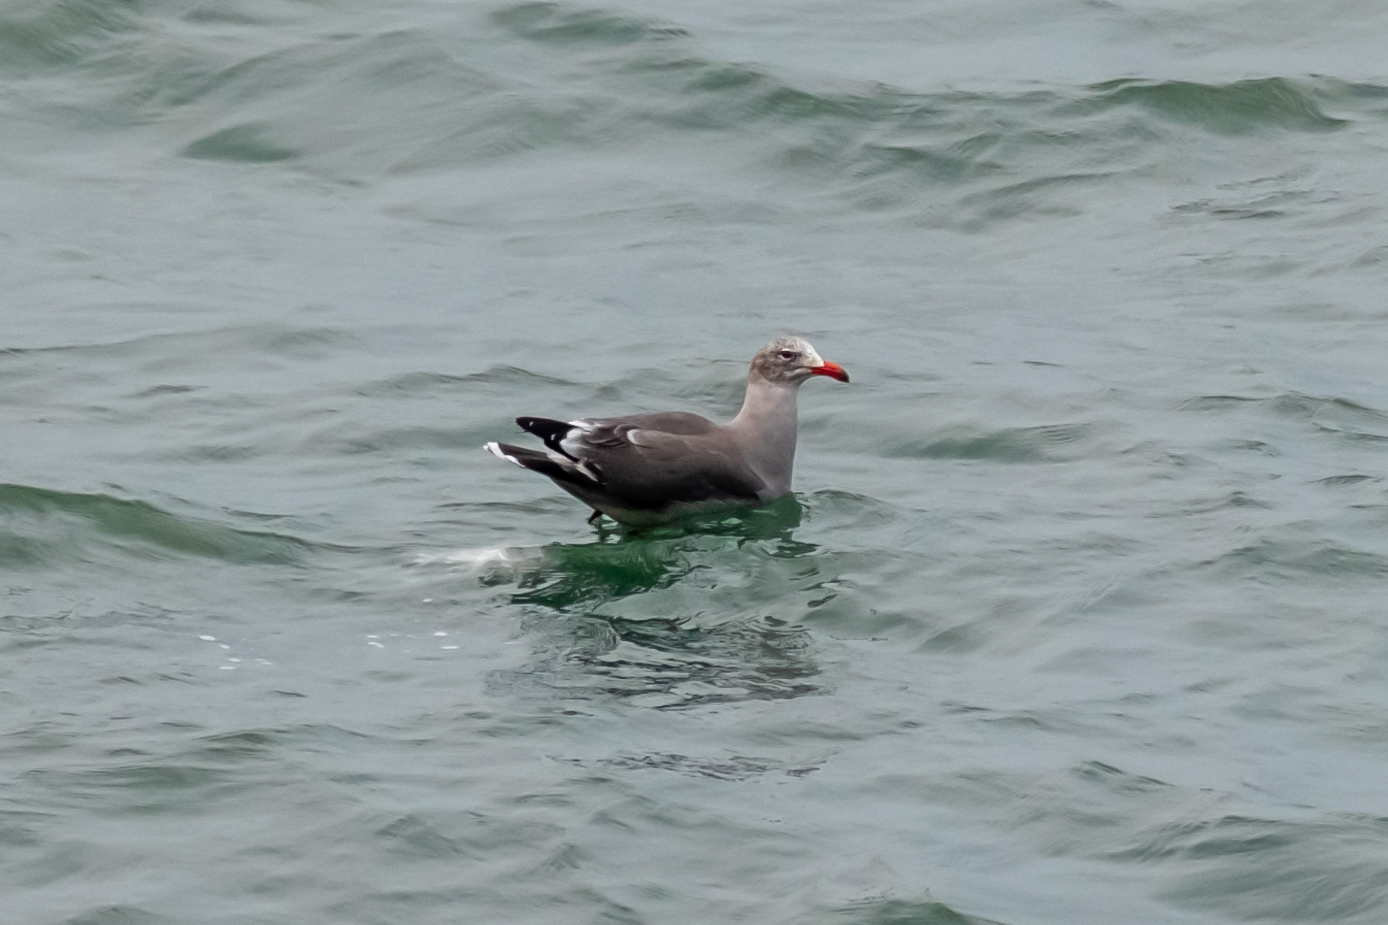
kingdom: Animalia
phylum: Chordata
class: Aves
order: Charadriiformes
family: Laridae
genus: Larus
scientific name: Larus heermanni
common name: Heermann's gull
